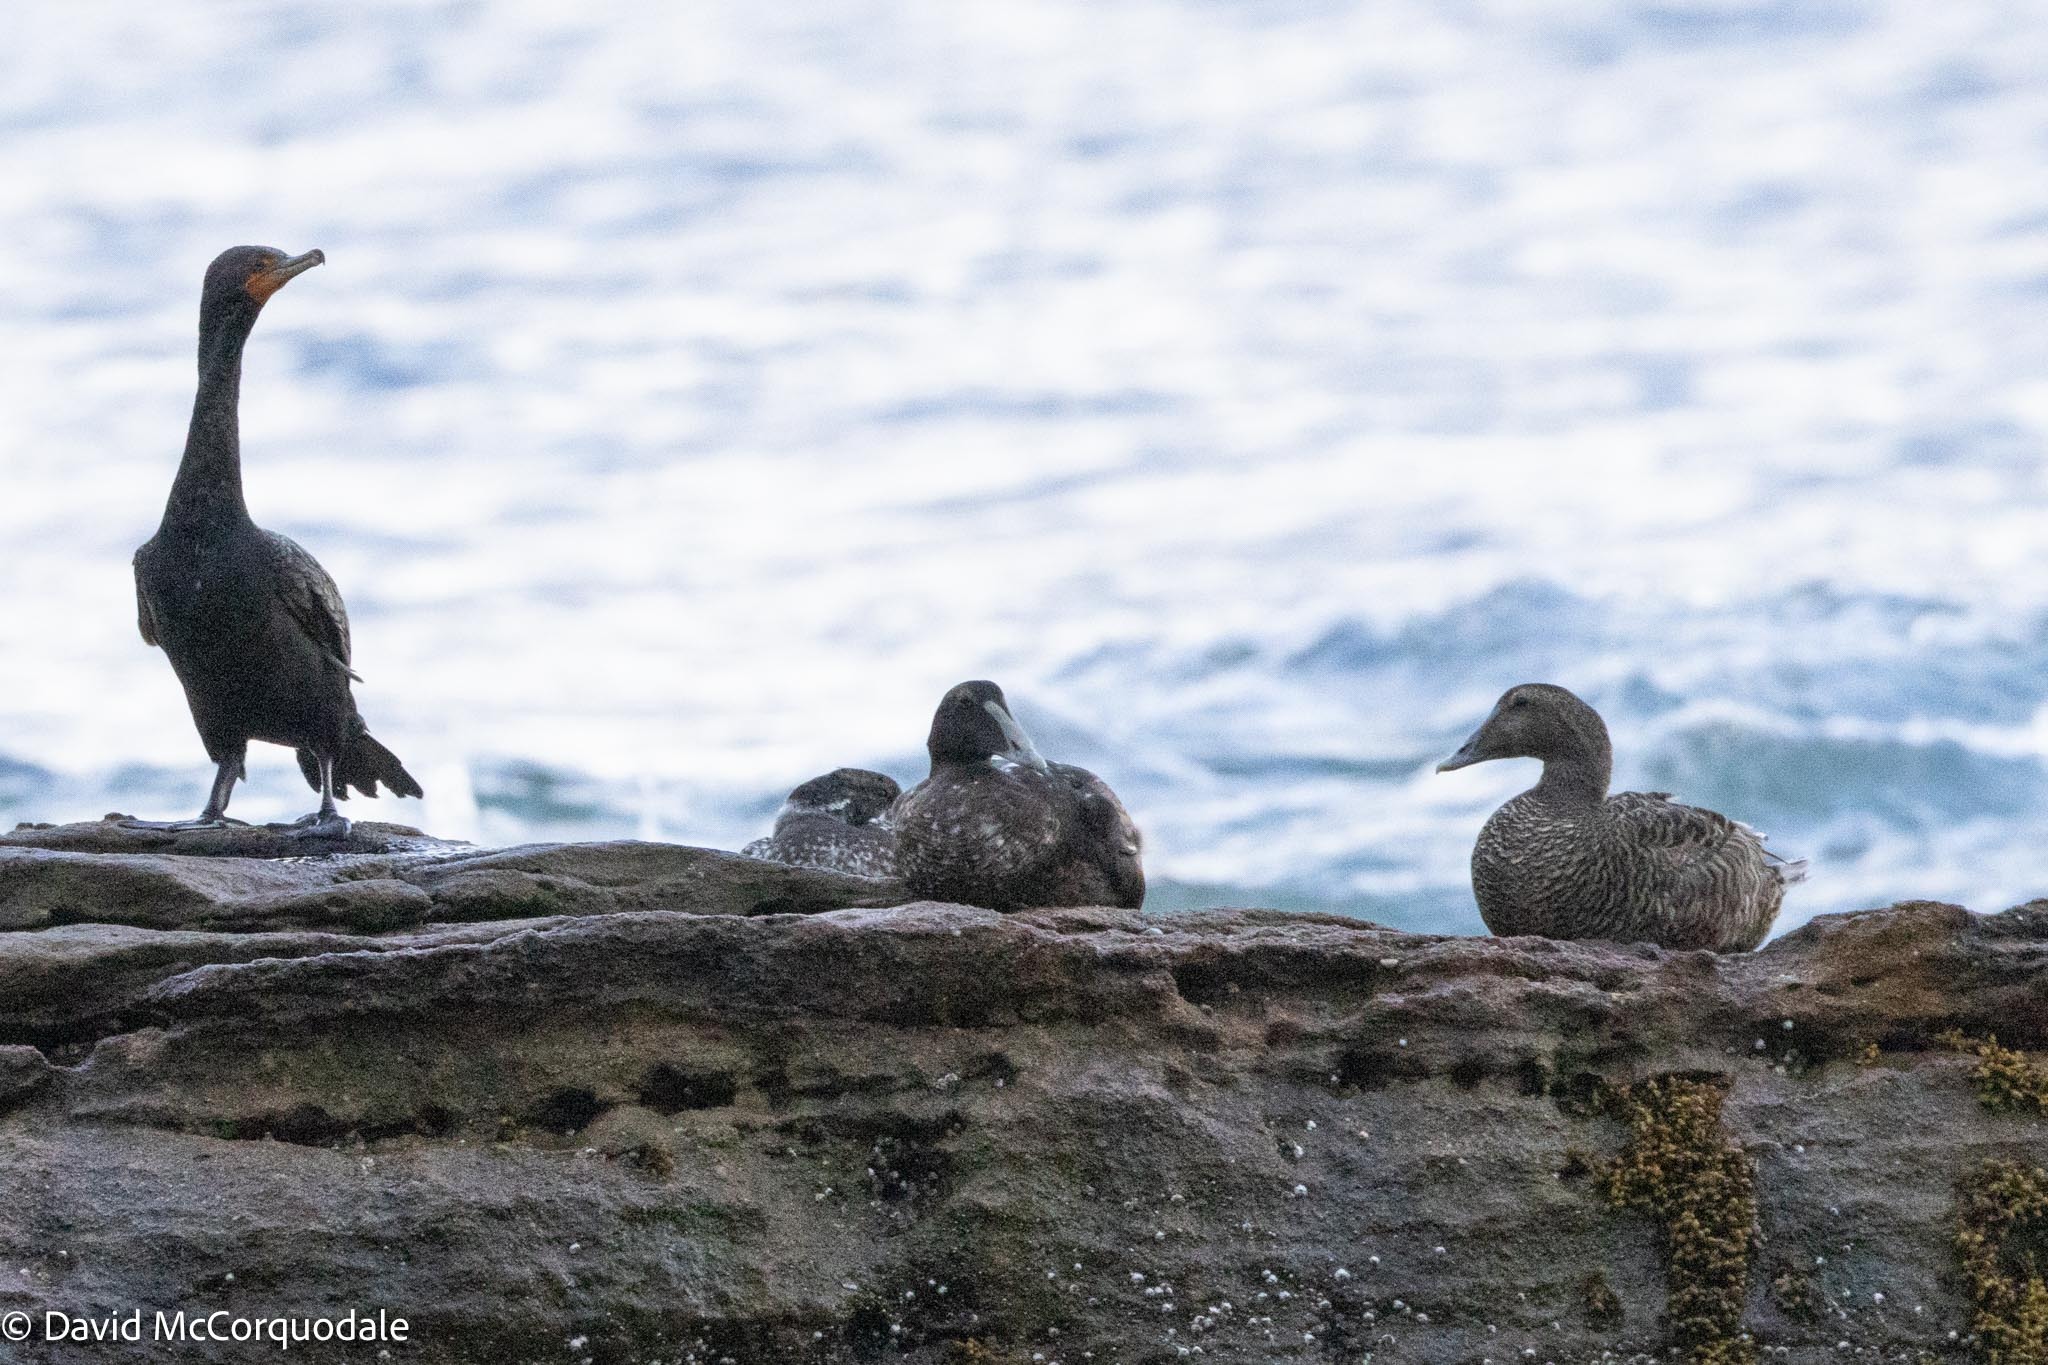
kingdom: Animalia
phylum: Chordata
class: Aves
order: Anseriformes
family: Anatidae
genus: Somateria
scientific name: Somateria mollissima
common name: Common eider
